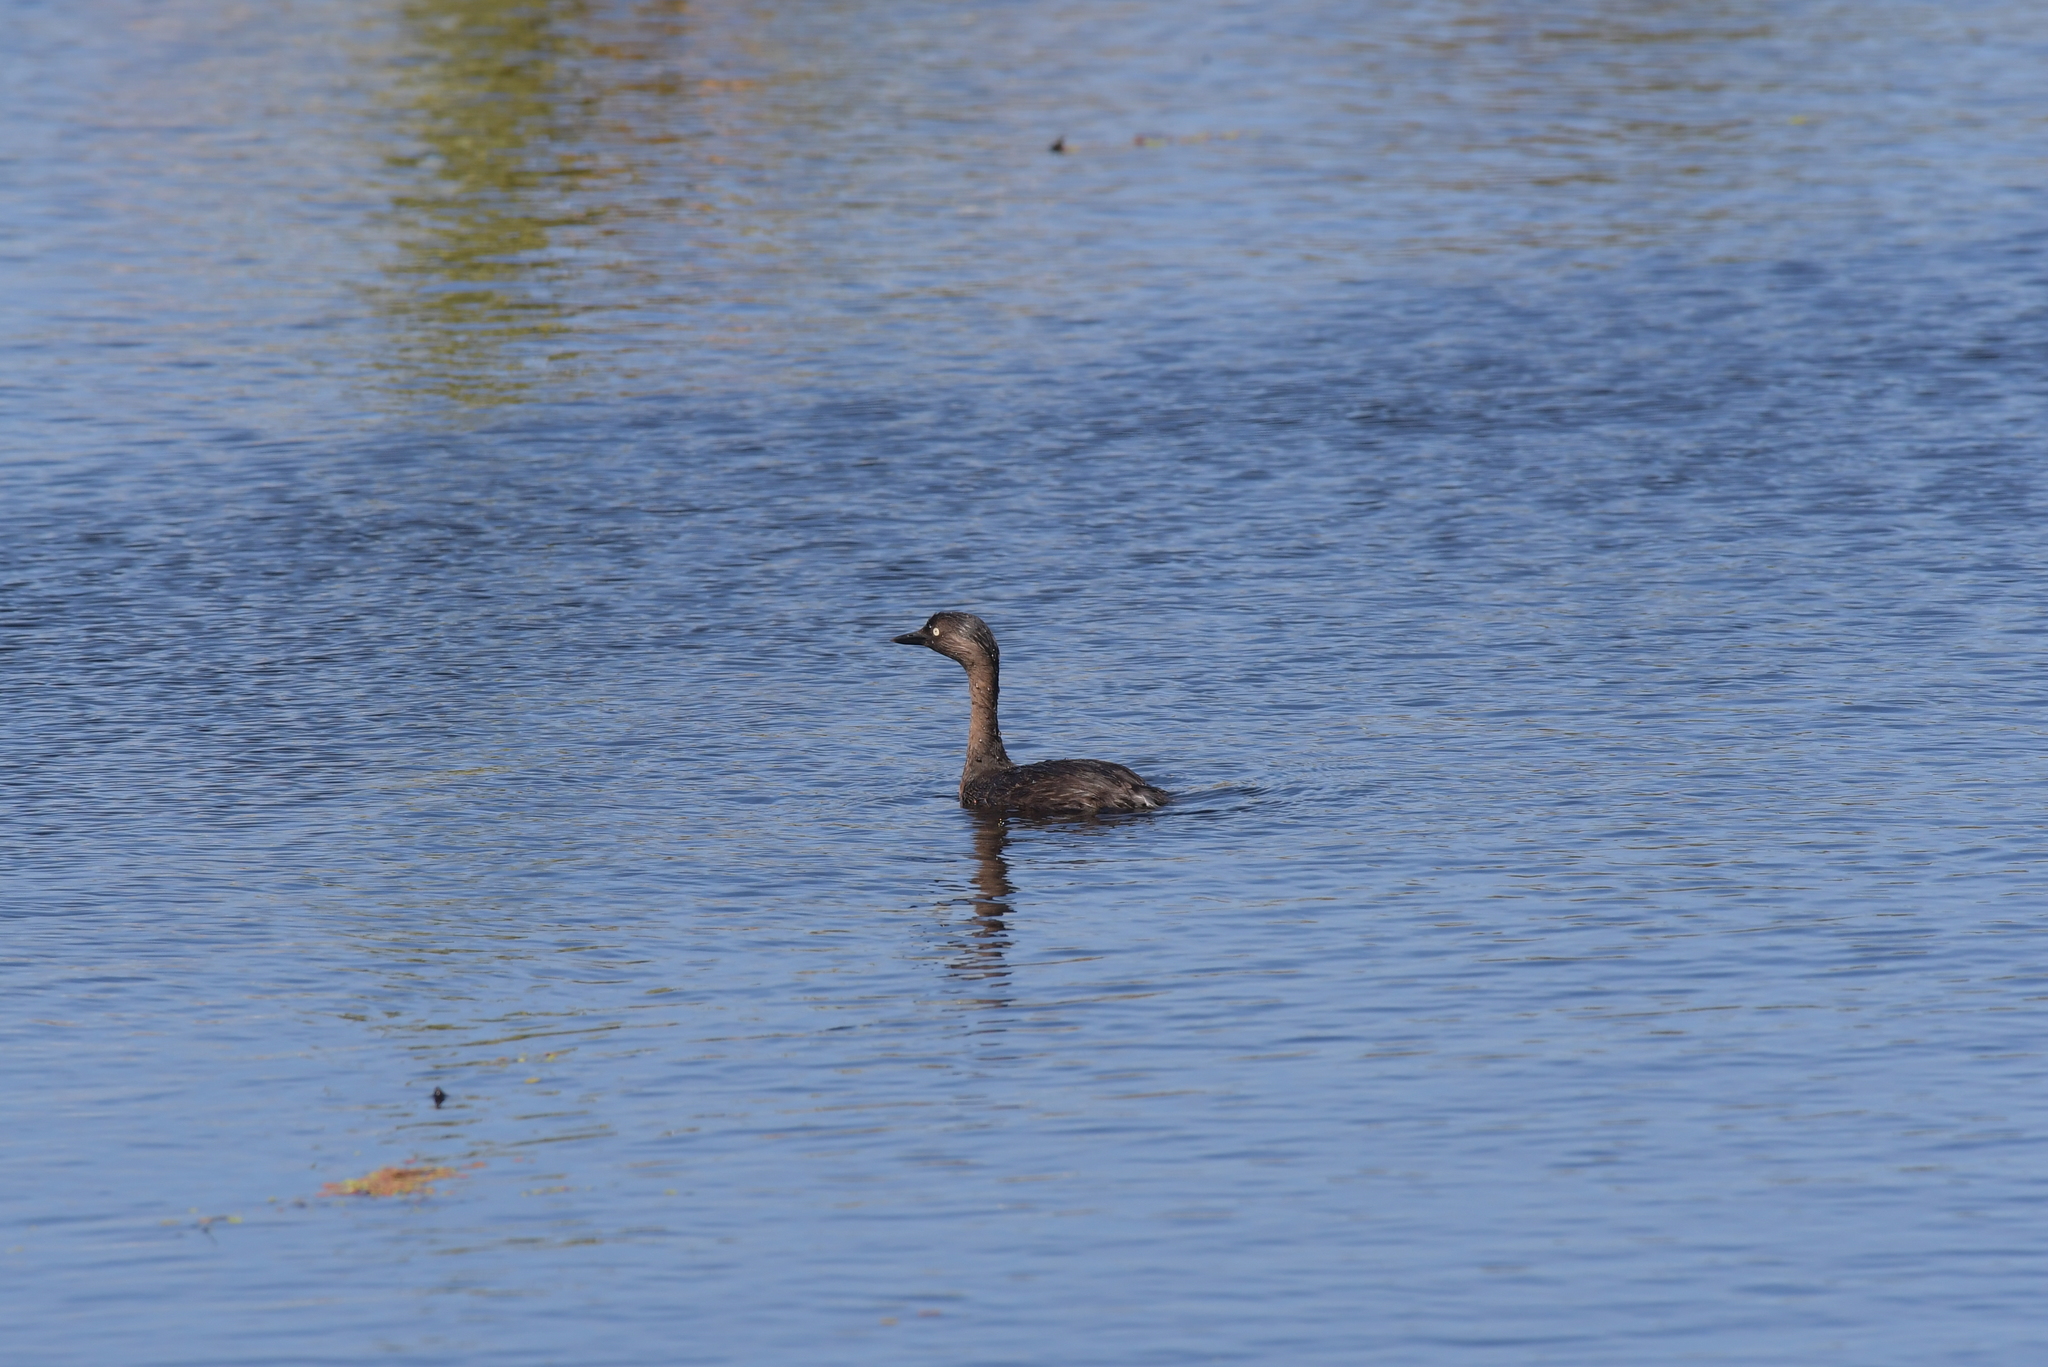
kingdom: Animalia
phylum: Chordata
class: Aves
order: Podicipediformes
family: Podicipedidae
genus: Poliocephalus
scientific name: Poliocephalus rufopectus
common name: New zealand grebe
